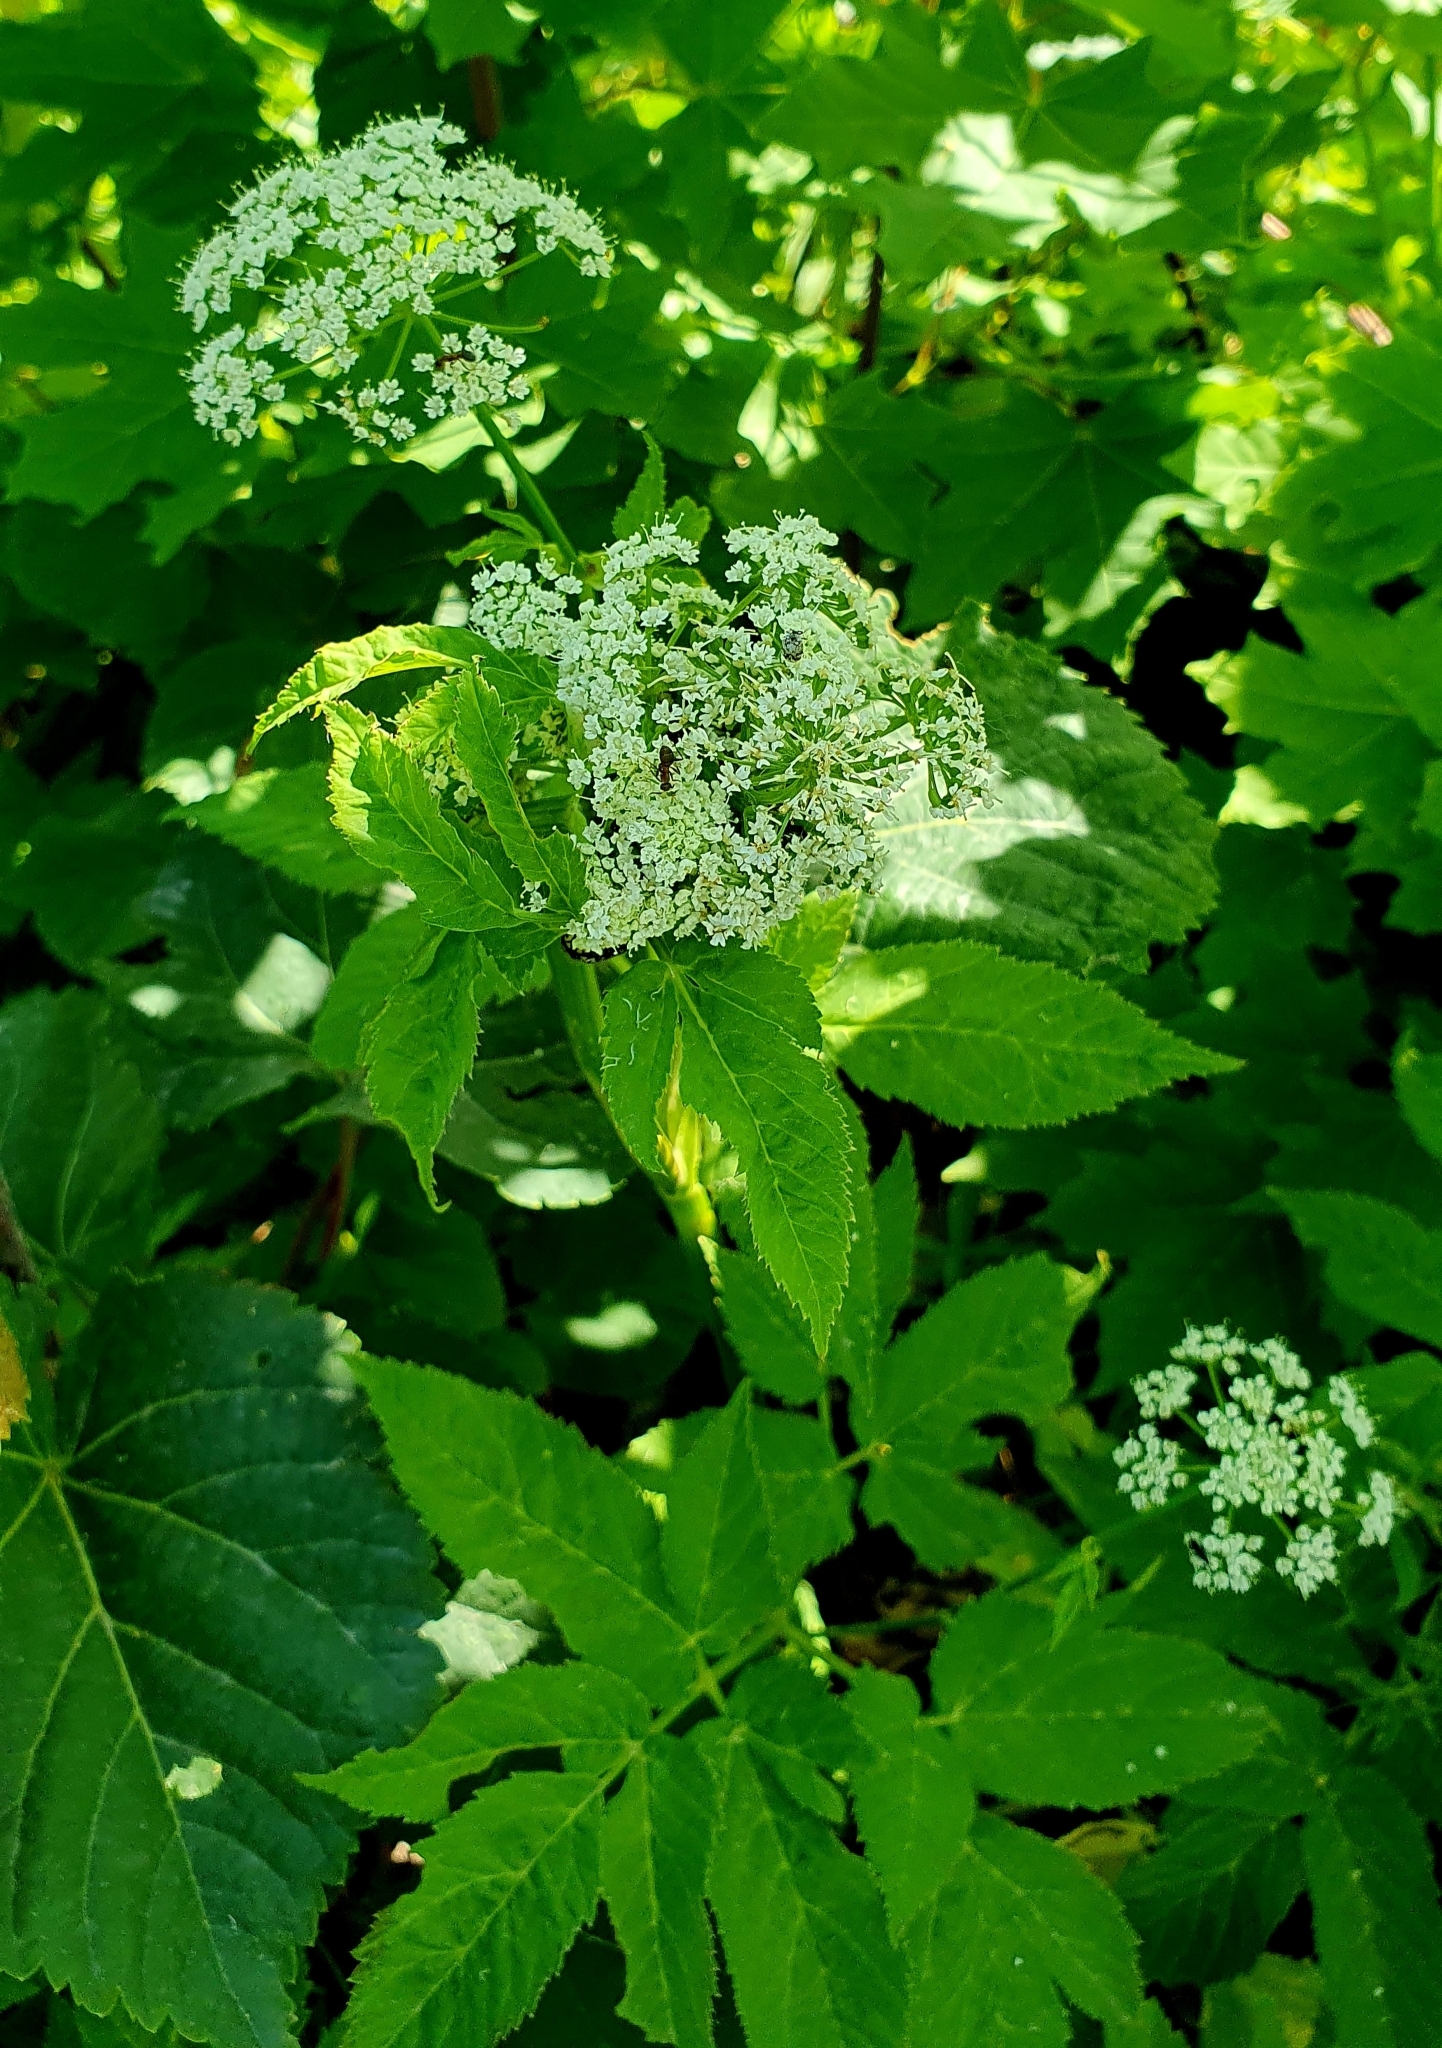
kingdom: Plantae
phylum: Tracheophyta
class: Magnoliopsida
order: Apiales
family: Apiaceae
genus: Aegopodium
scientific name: Aegopodium podagraria
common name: Ground-elder
